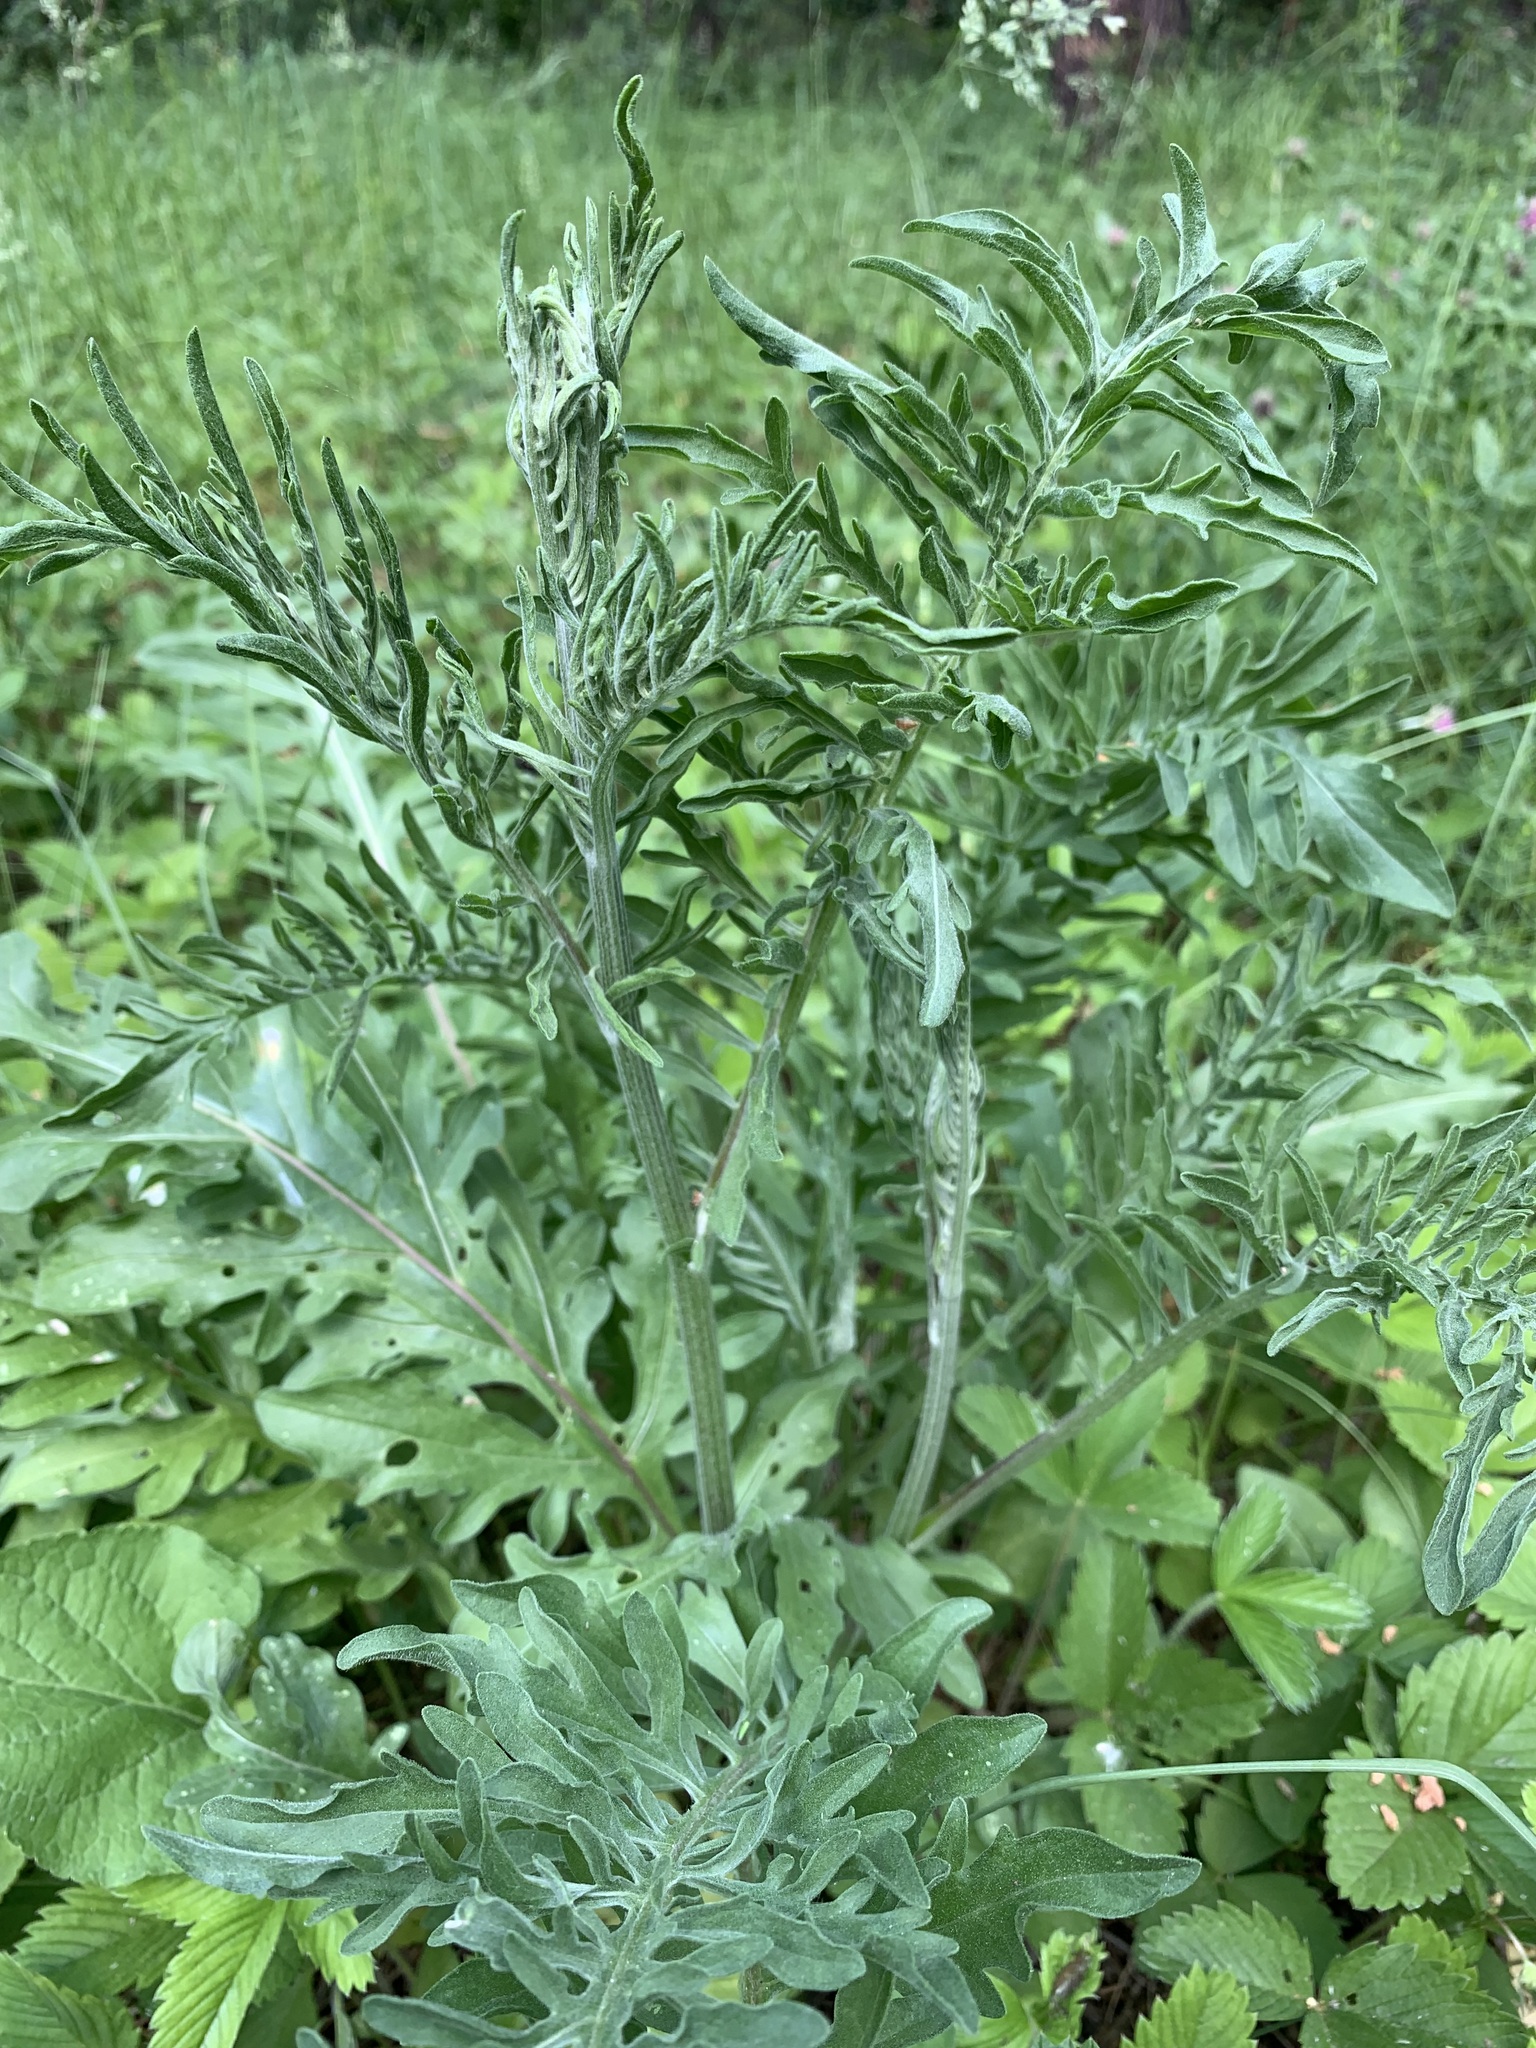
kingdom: Plantae
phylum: Tracheophyta
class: Magnoliopsida
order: Asterales
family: Asteraceae
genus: Centaurea
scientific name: Centaurea scabiosa
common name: Greater knapweed
